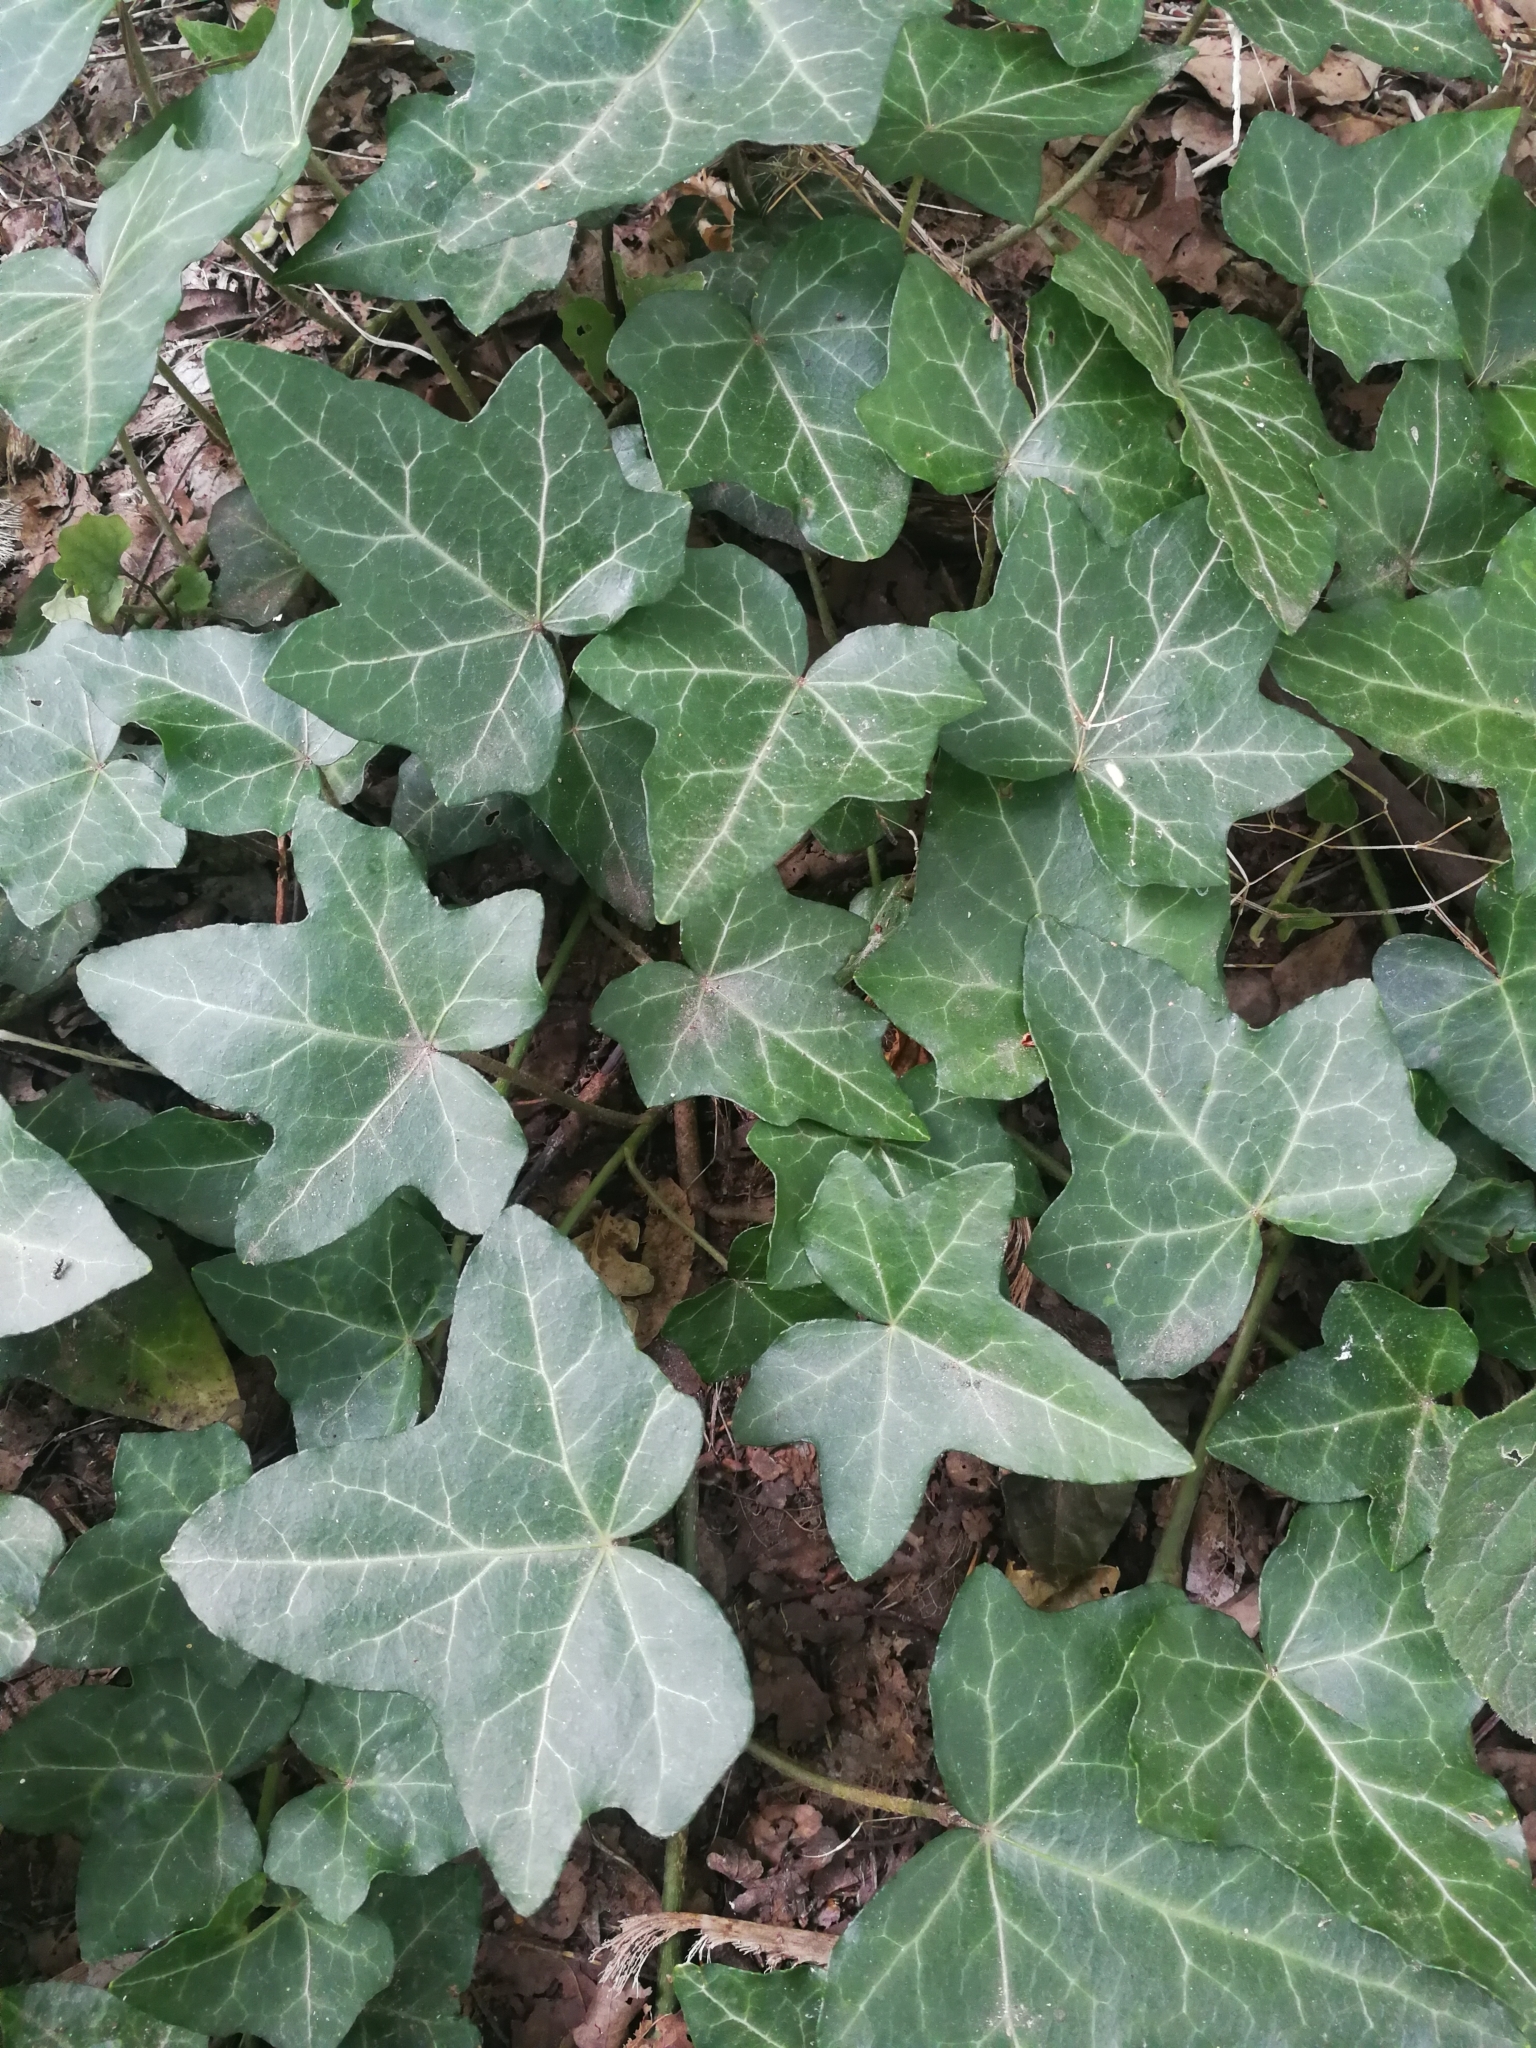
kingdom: Plantae
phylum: Tracheophyta
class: Magnoliopsida
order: Apiales
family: Araliaceae
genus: Hedera
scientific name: Hedera helix
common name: Ivy
